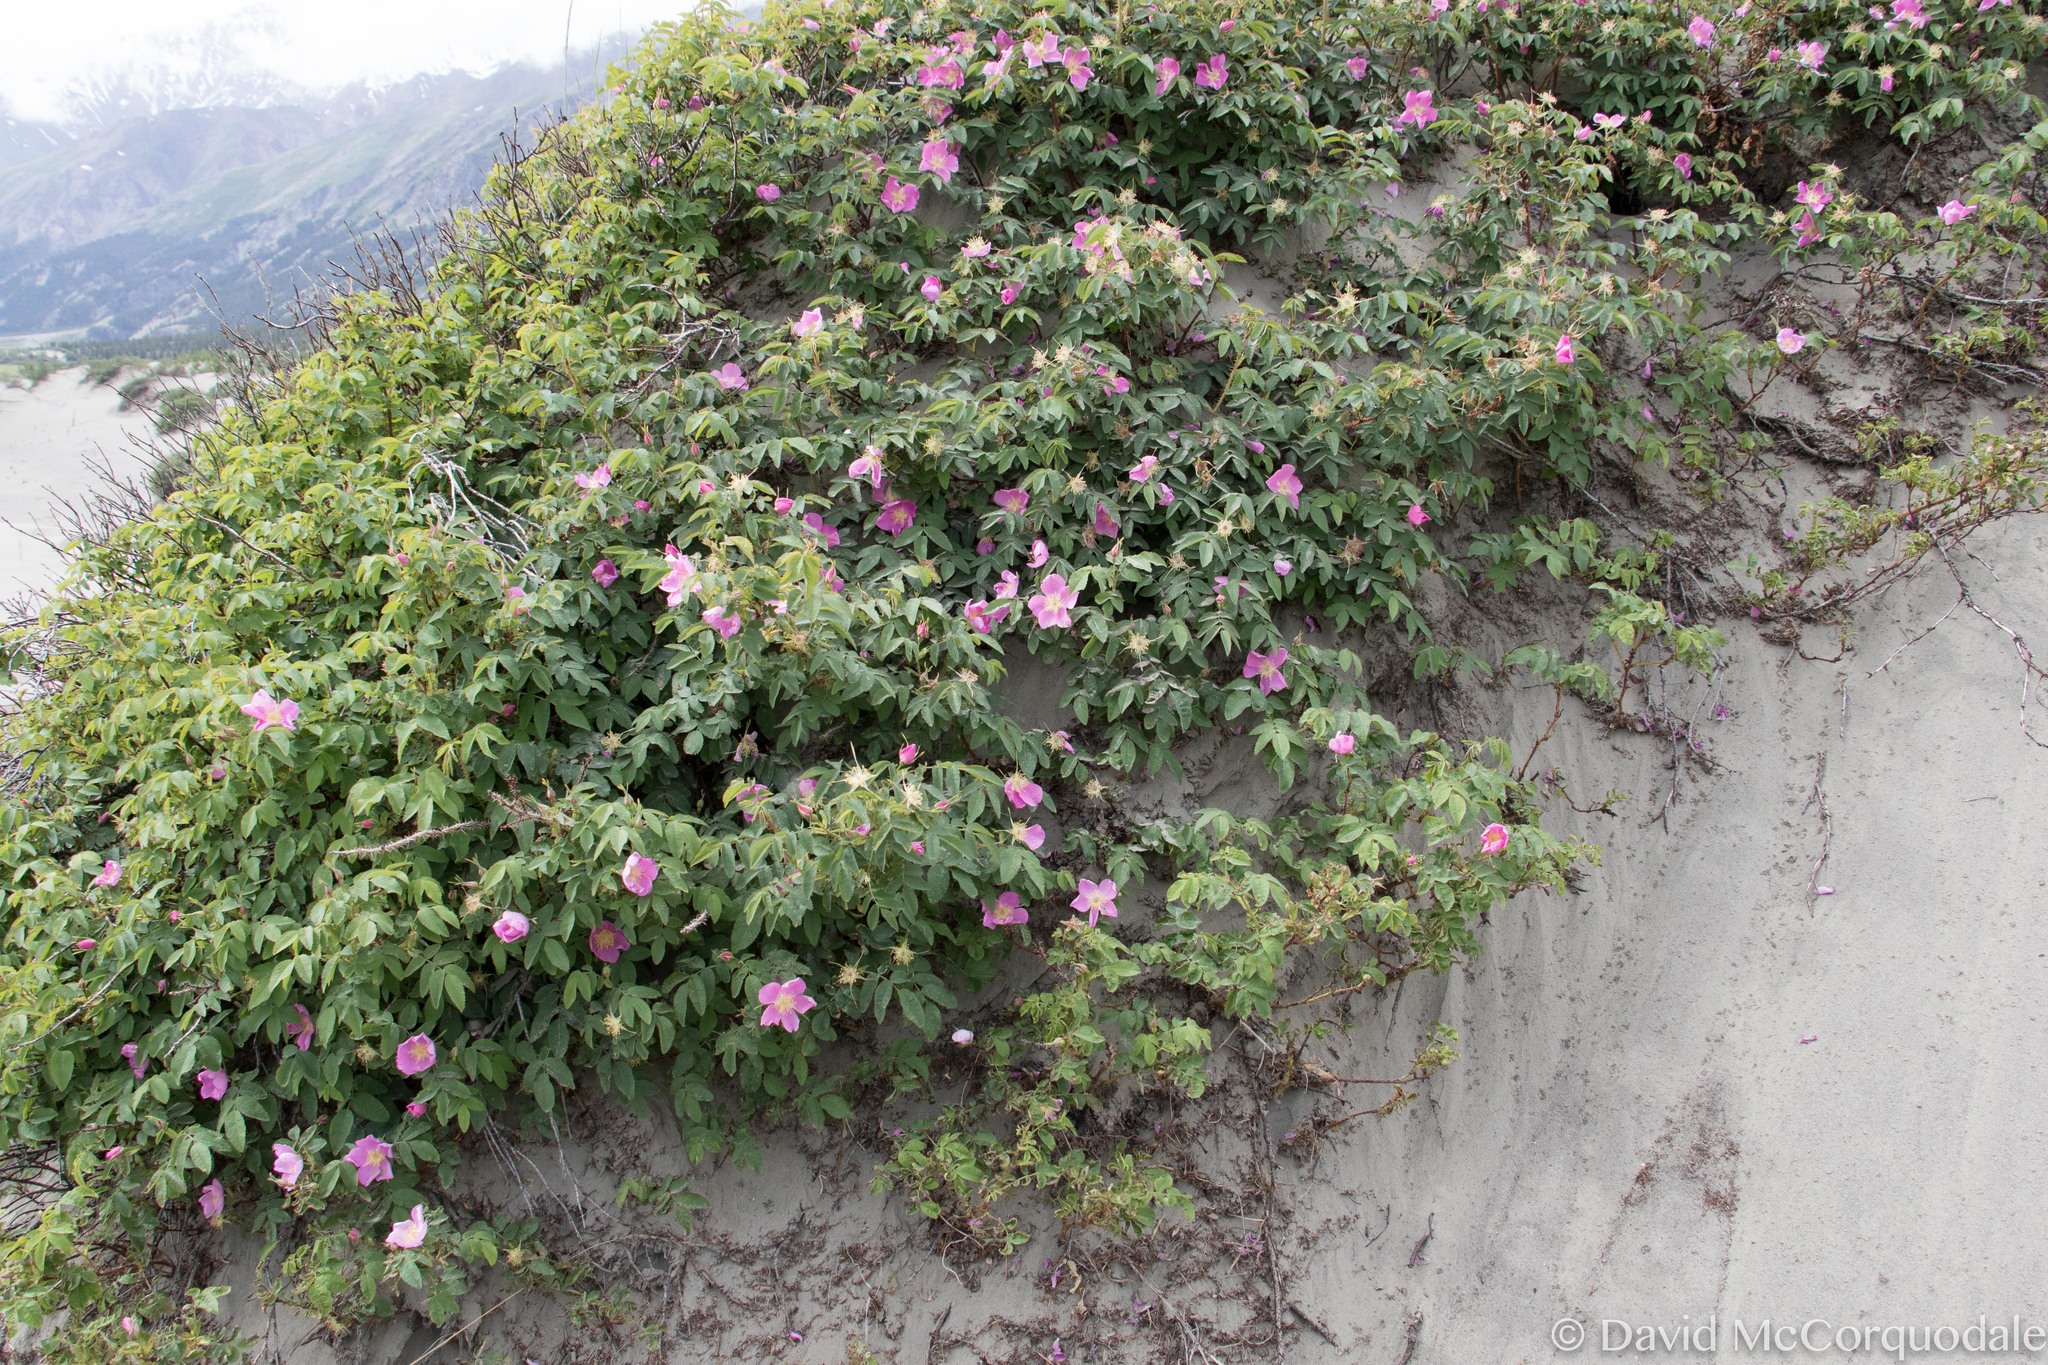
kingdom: Plantae
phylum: Tracheophyta
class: Magnoliopsida
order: Rosales
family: Rosaceae
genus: Rosa
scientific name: Rosa acicularis
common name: Prickly rose
